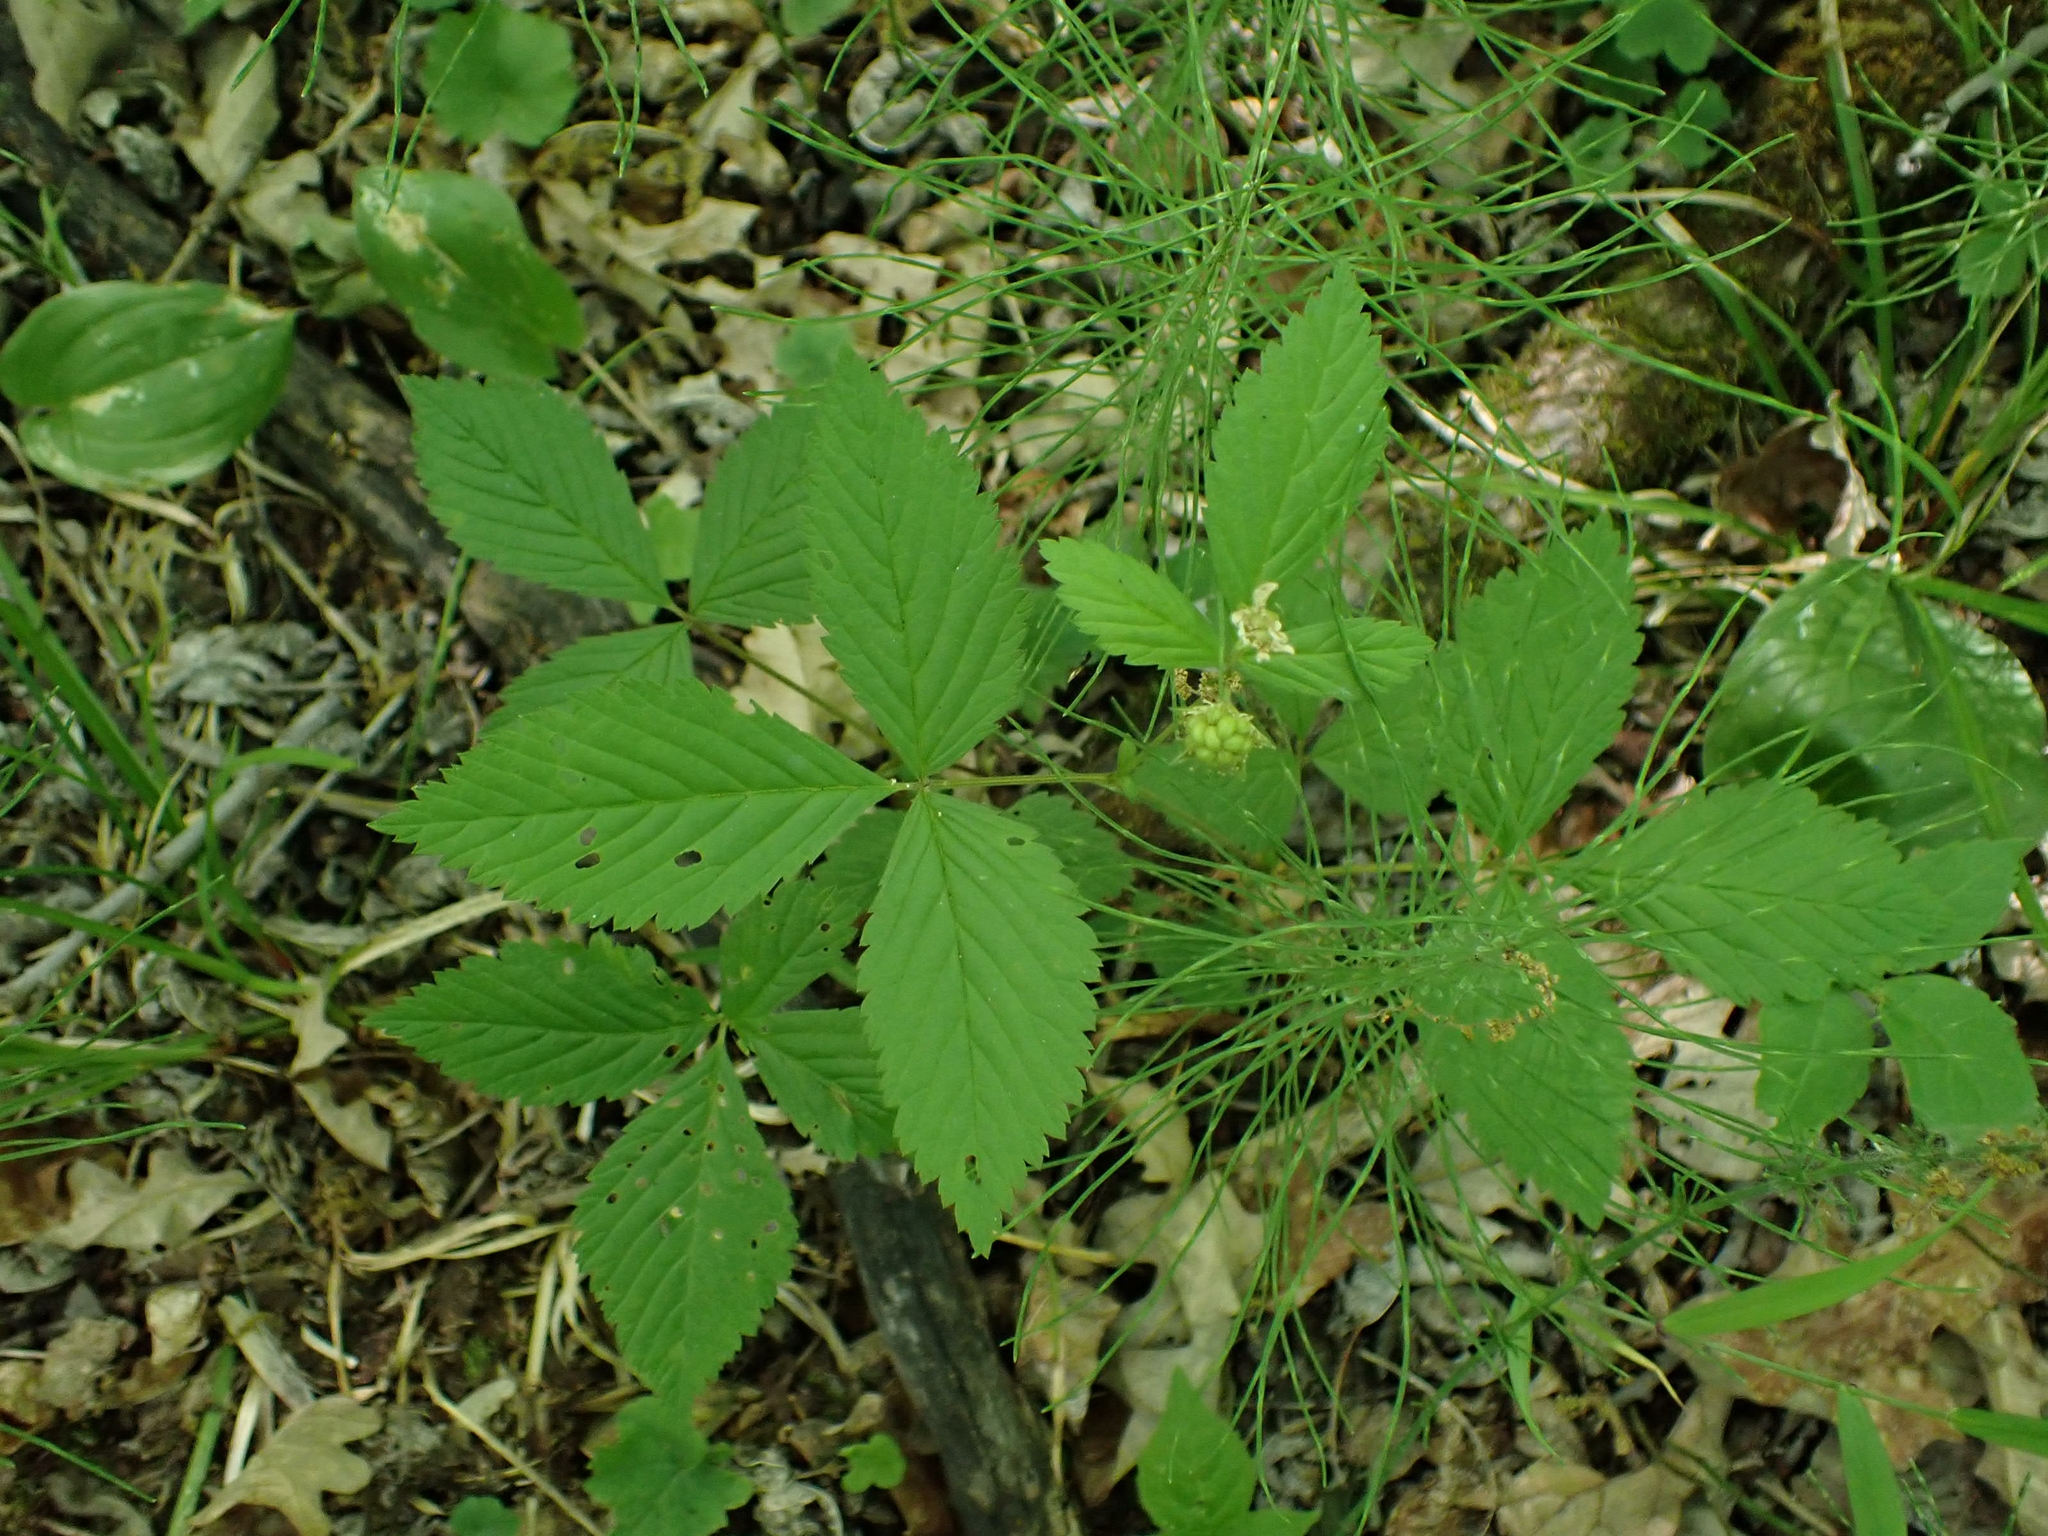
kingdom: Plantae
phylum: Tracheophyta
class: Magnoliopsida
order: Rosales
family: Rosaceae
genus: Rubus
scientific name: Rubus pubescens
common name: Dwarf raspberry
